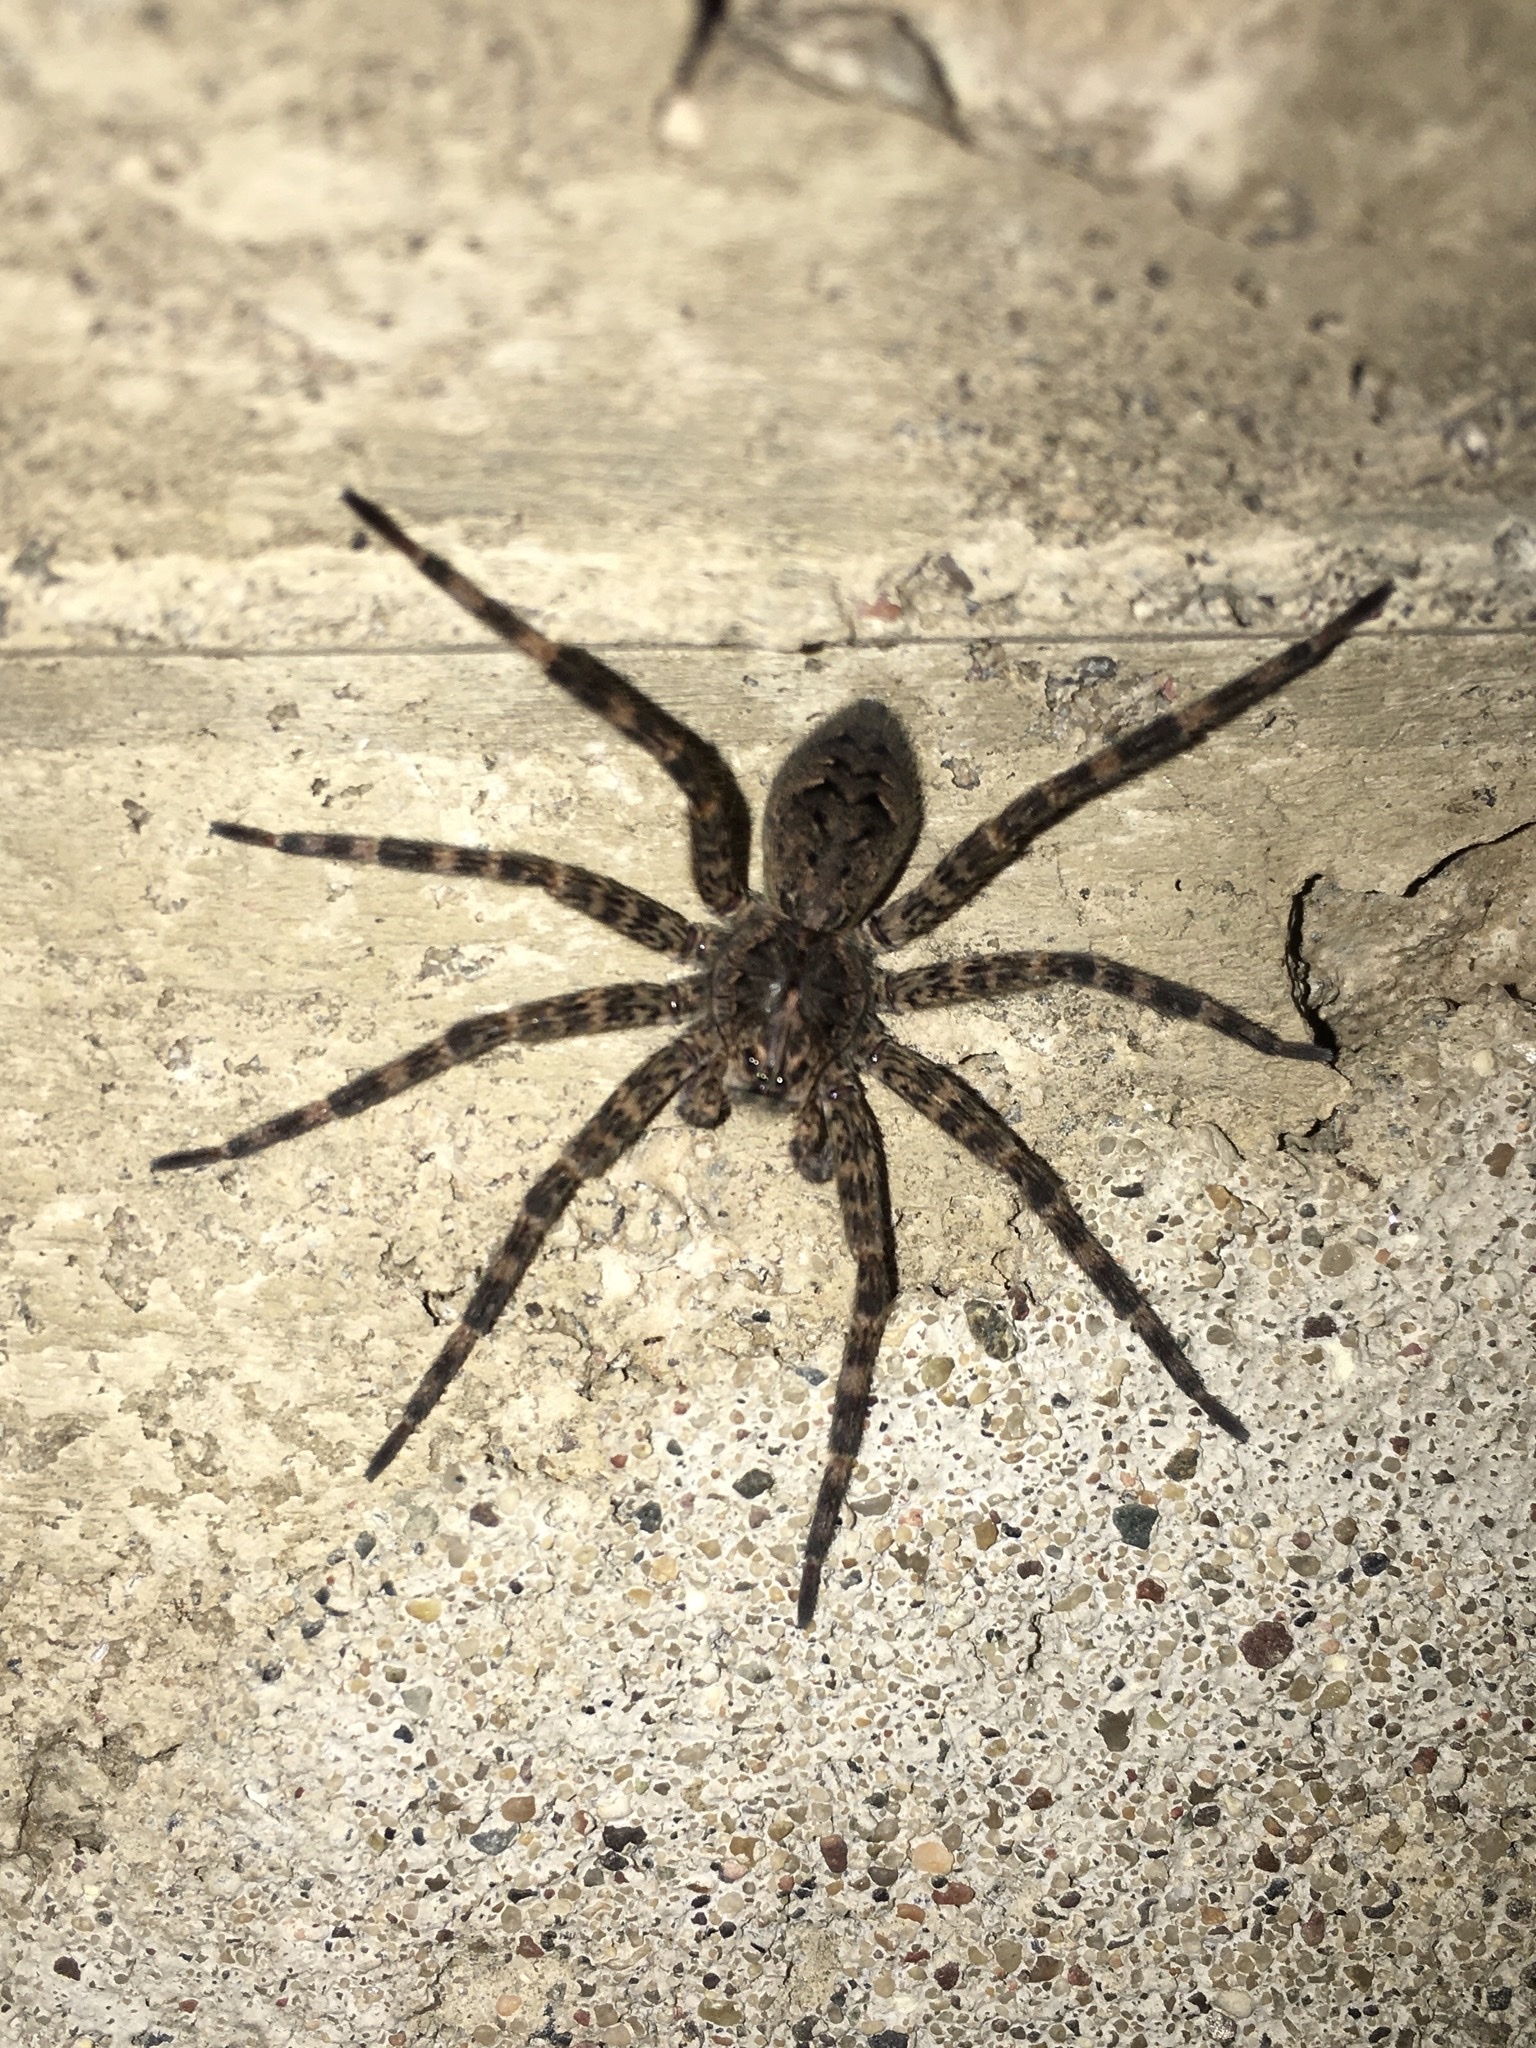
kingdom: Animalia
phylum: Arthropoda
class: Arachnida
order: Araneae
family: Pisauridae
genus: Dolomedes
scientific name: Dolomedes tenebrosus
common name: Dark fishing spider
